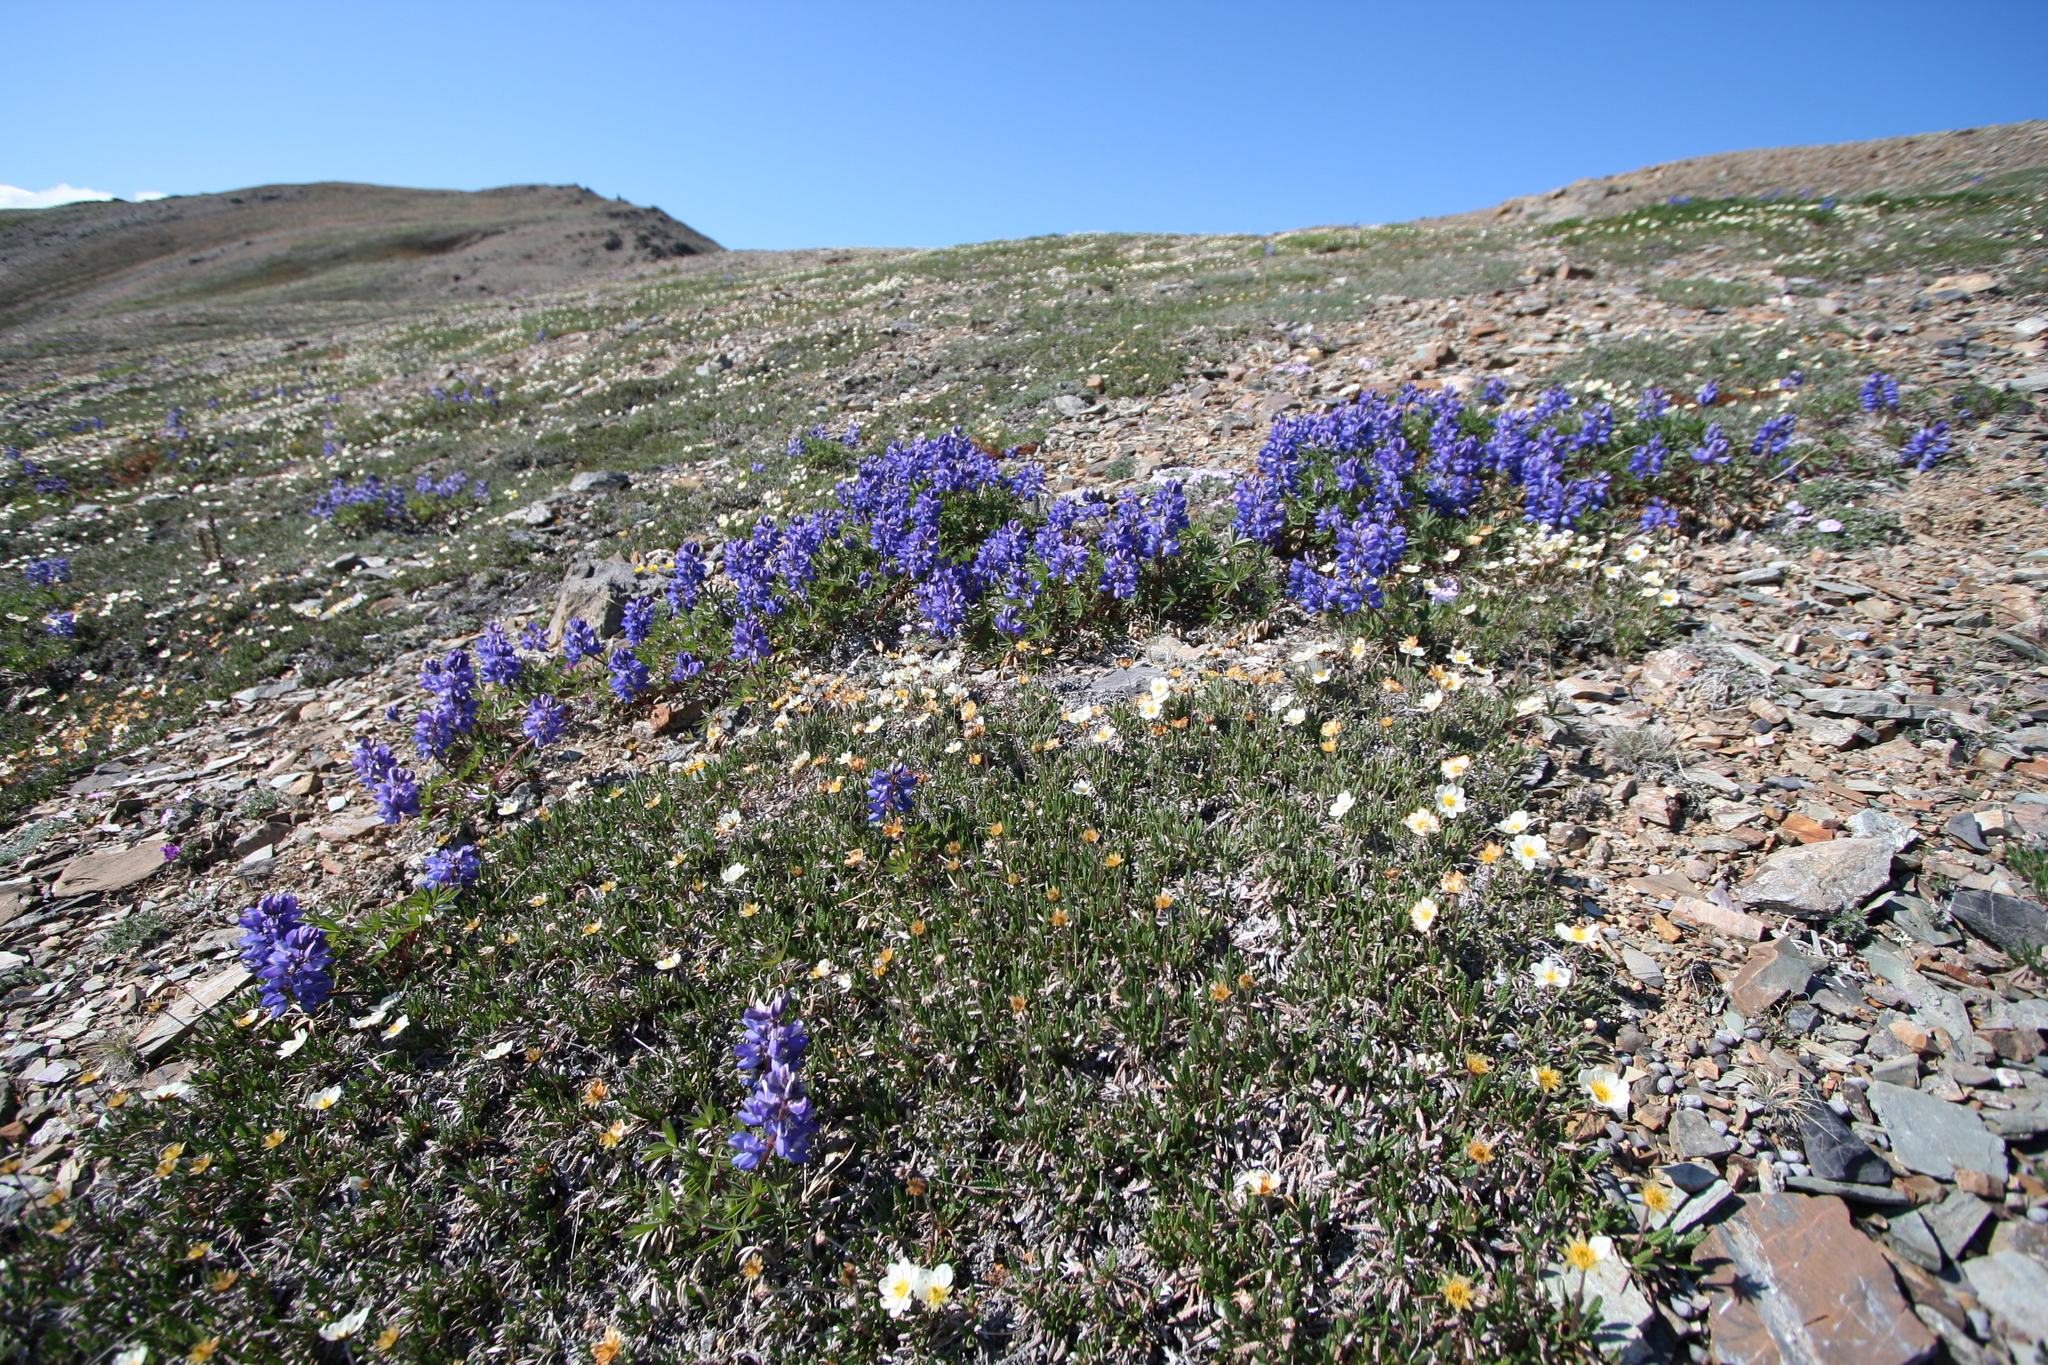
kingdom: Plantae
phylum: Tracheophyta
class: Magnoliopsida
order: Fabales
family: Fabaceae
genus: Lupinus
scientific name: Lupinus arcticus
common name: Arctic lupine
